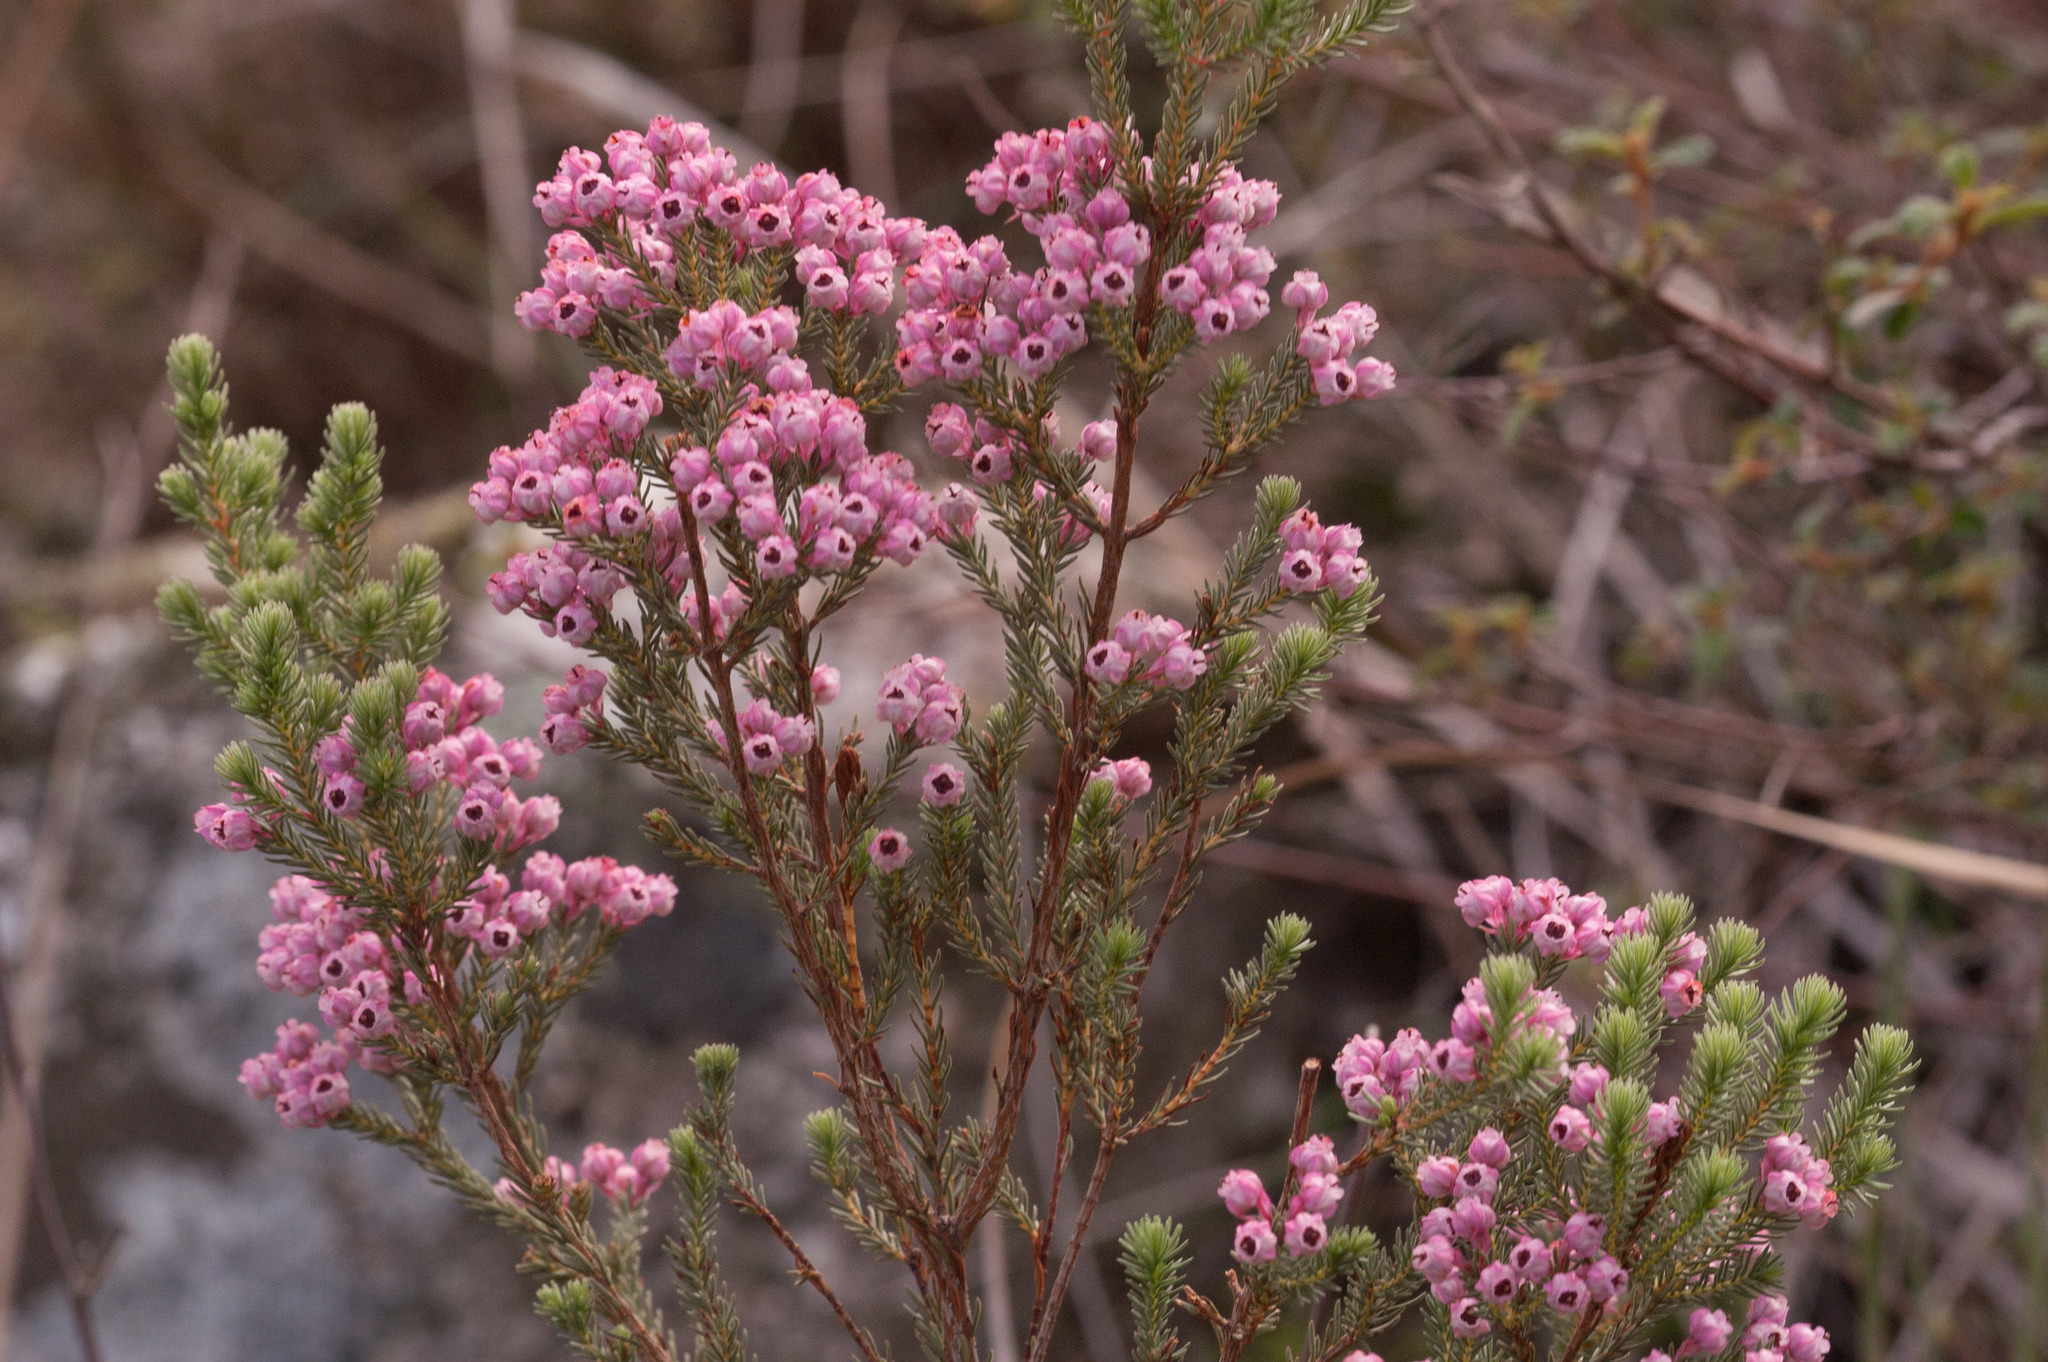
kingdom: Plantae
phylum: Tracheophyta
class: Magnoliopsida
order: Ericales
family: Ericaceae
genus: Erica
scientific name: Erica baccans
